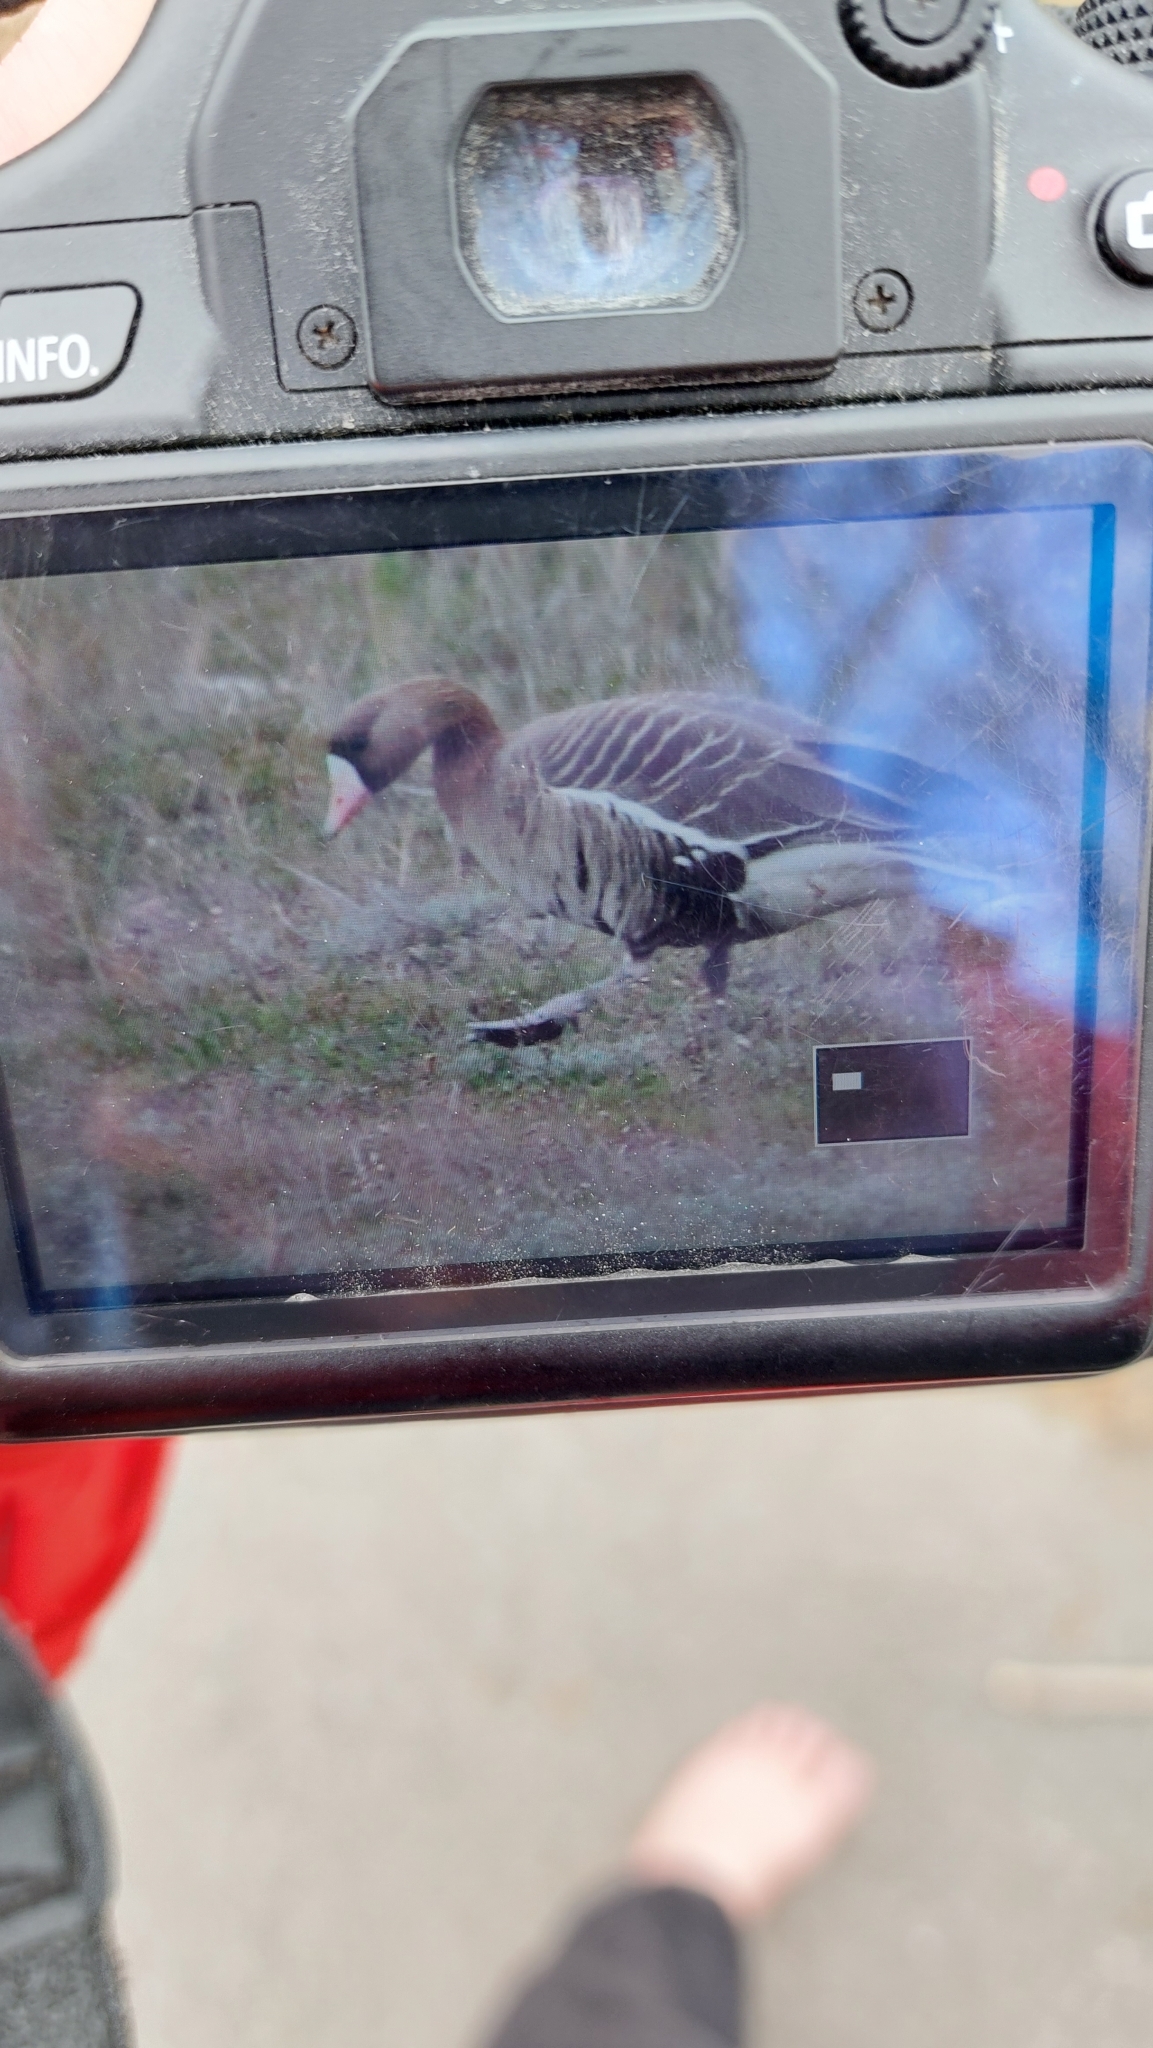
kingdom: Animalia
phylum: Chordata
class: Aves
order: Anseriformes
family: Anatidae
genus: Anser
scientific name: Anser albifrons
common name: Greater white-fronted goose
